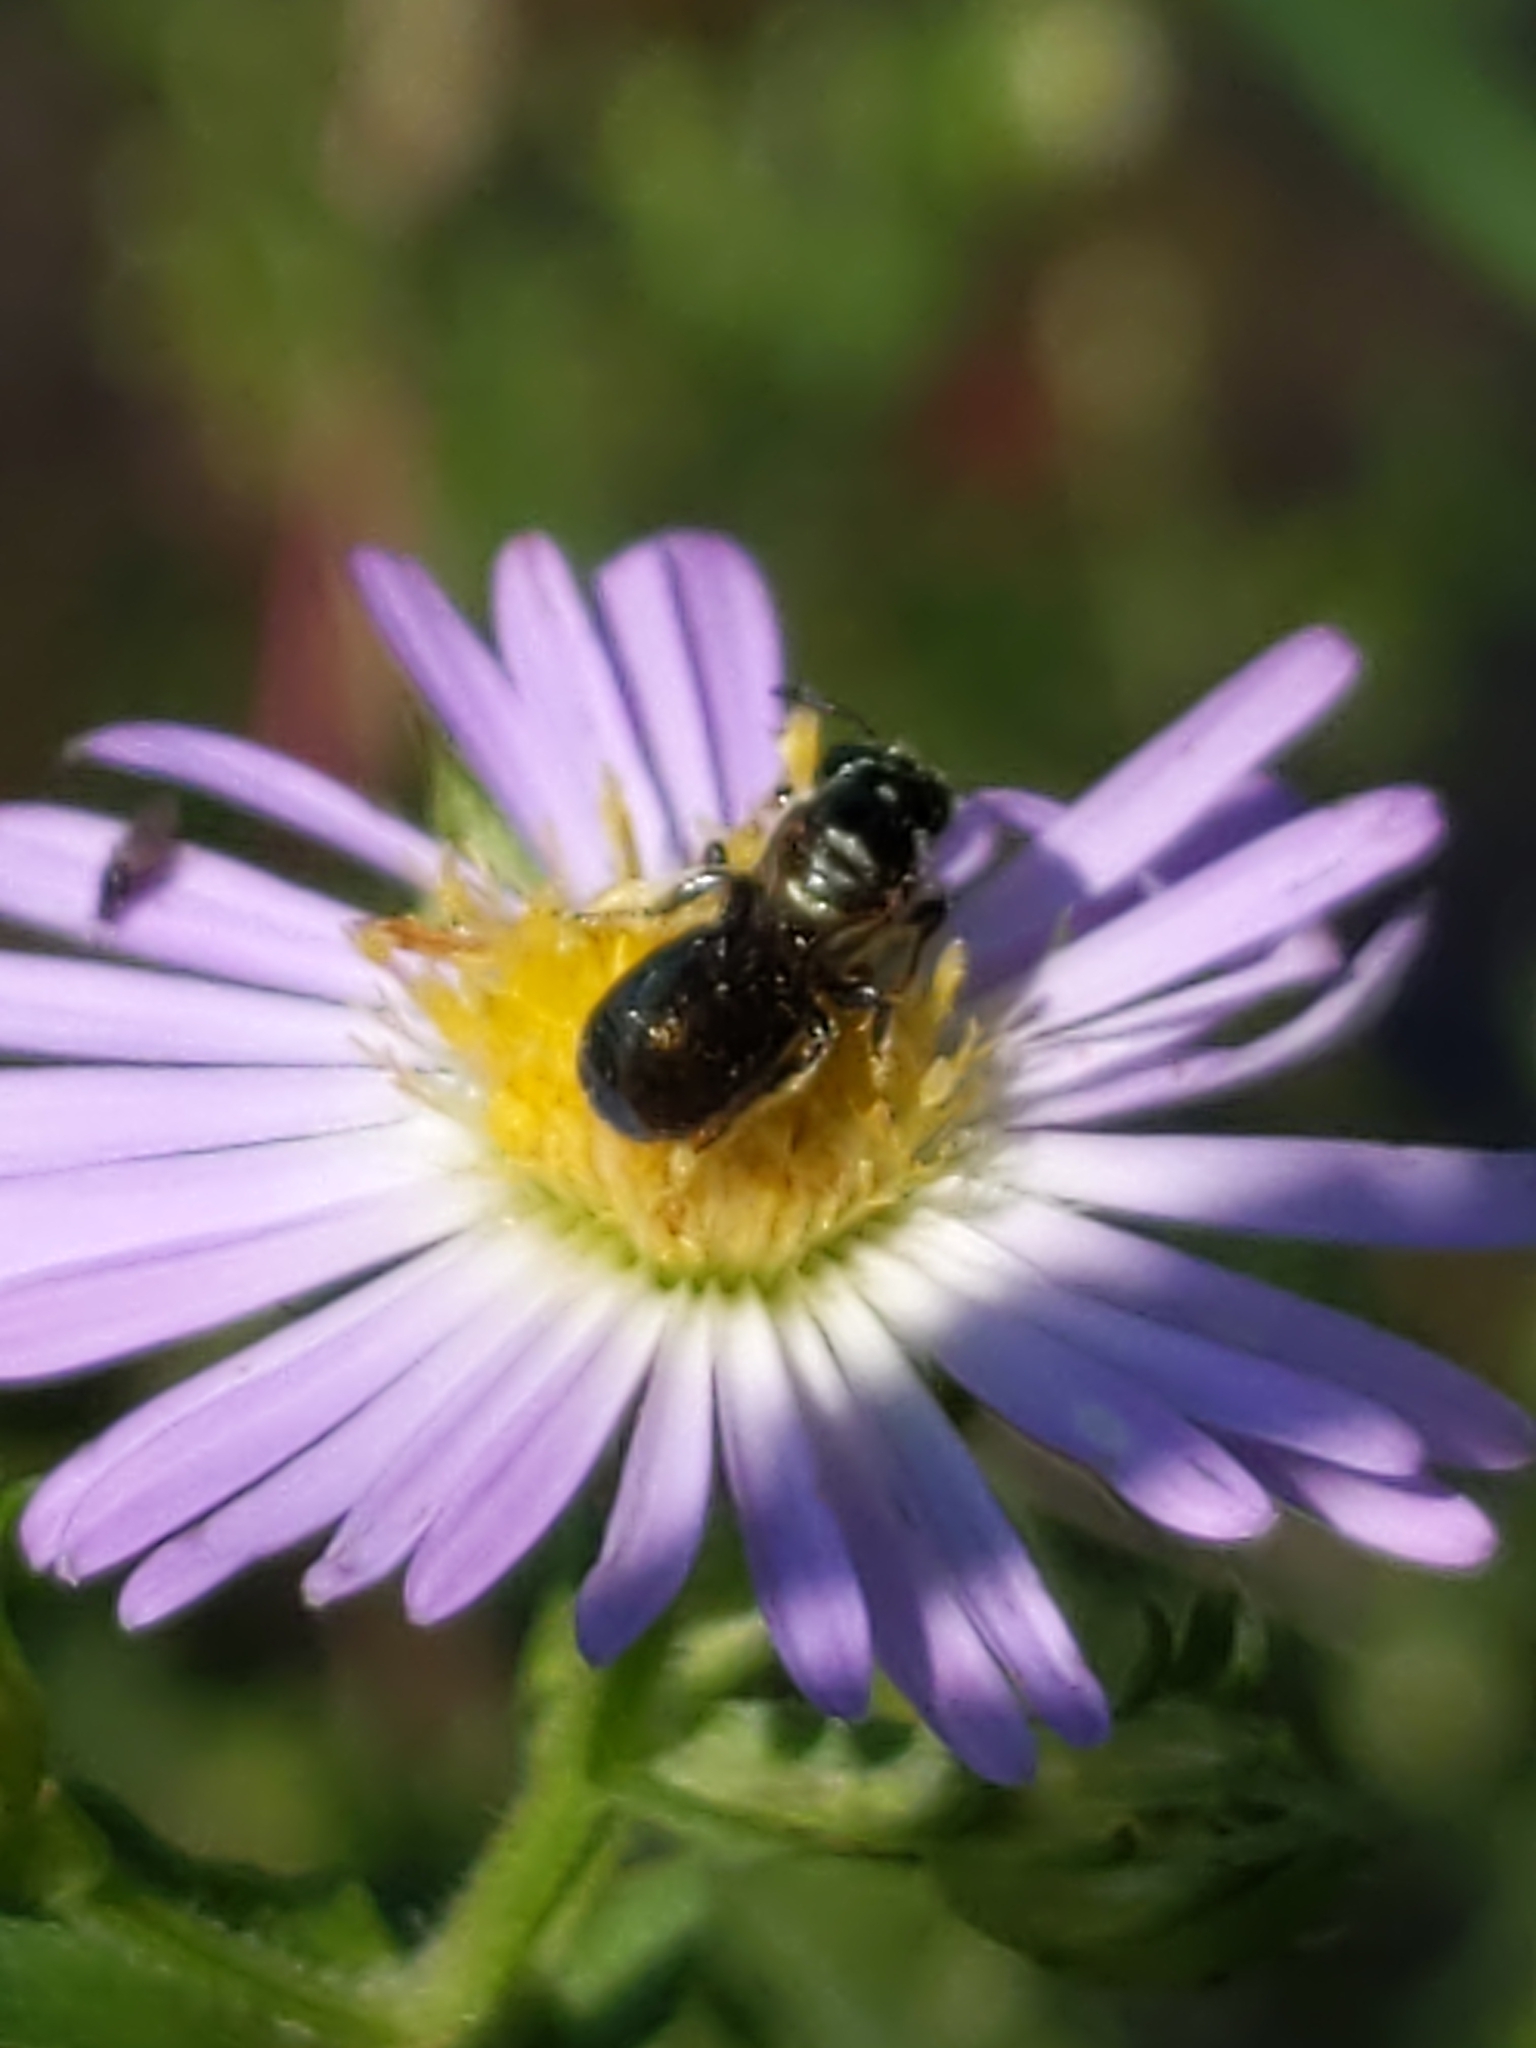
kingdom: Animalia
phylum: Arthropoda
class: Insecta
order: Hymenoptera
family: Apidae
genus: Zadontomerus
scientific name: Zadontomerus
